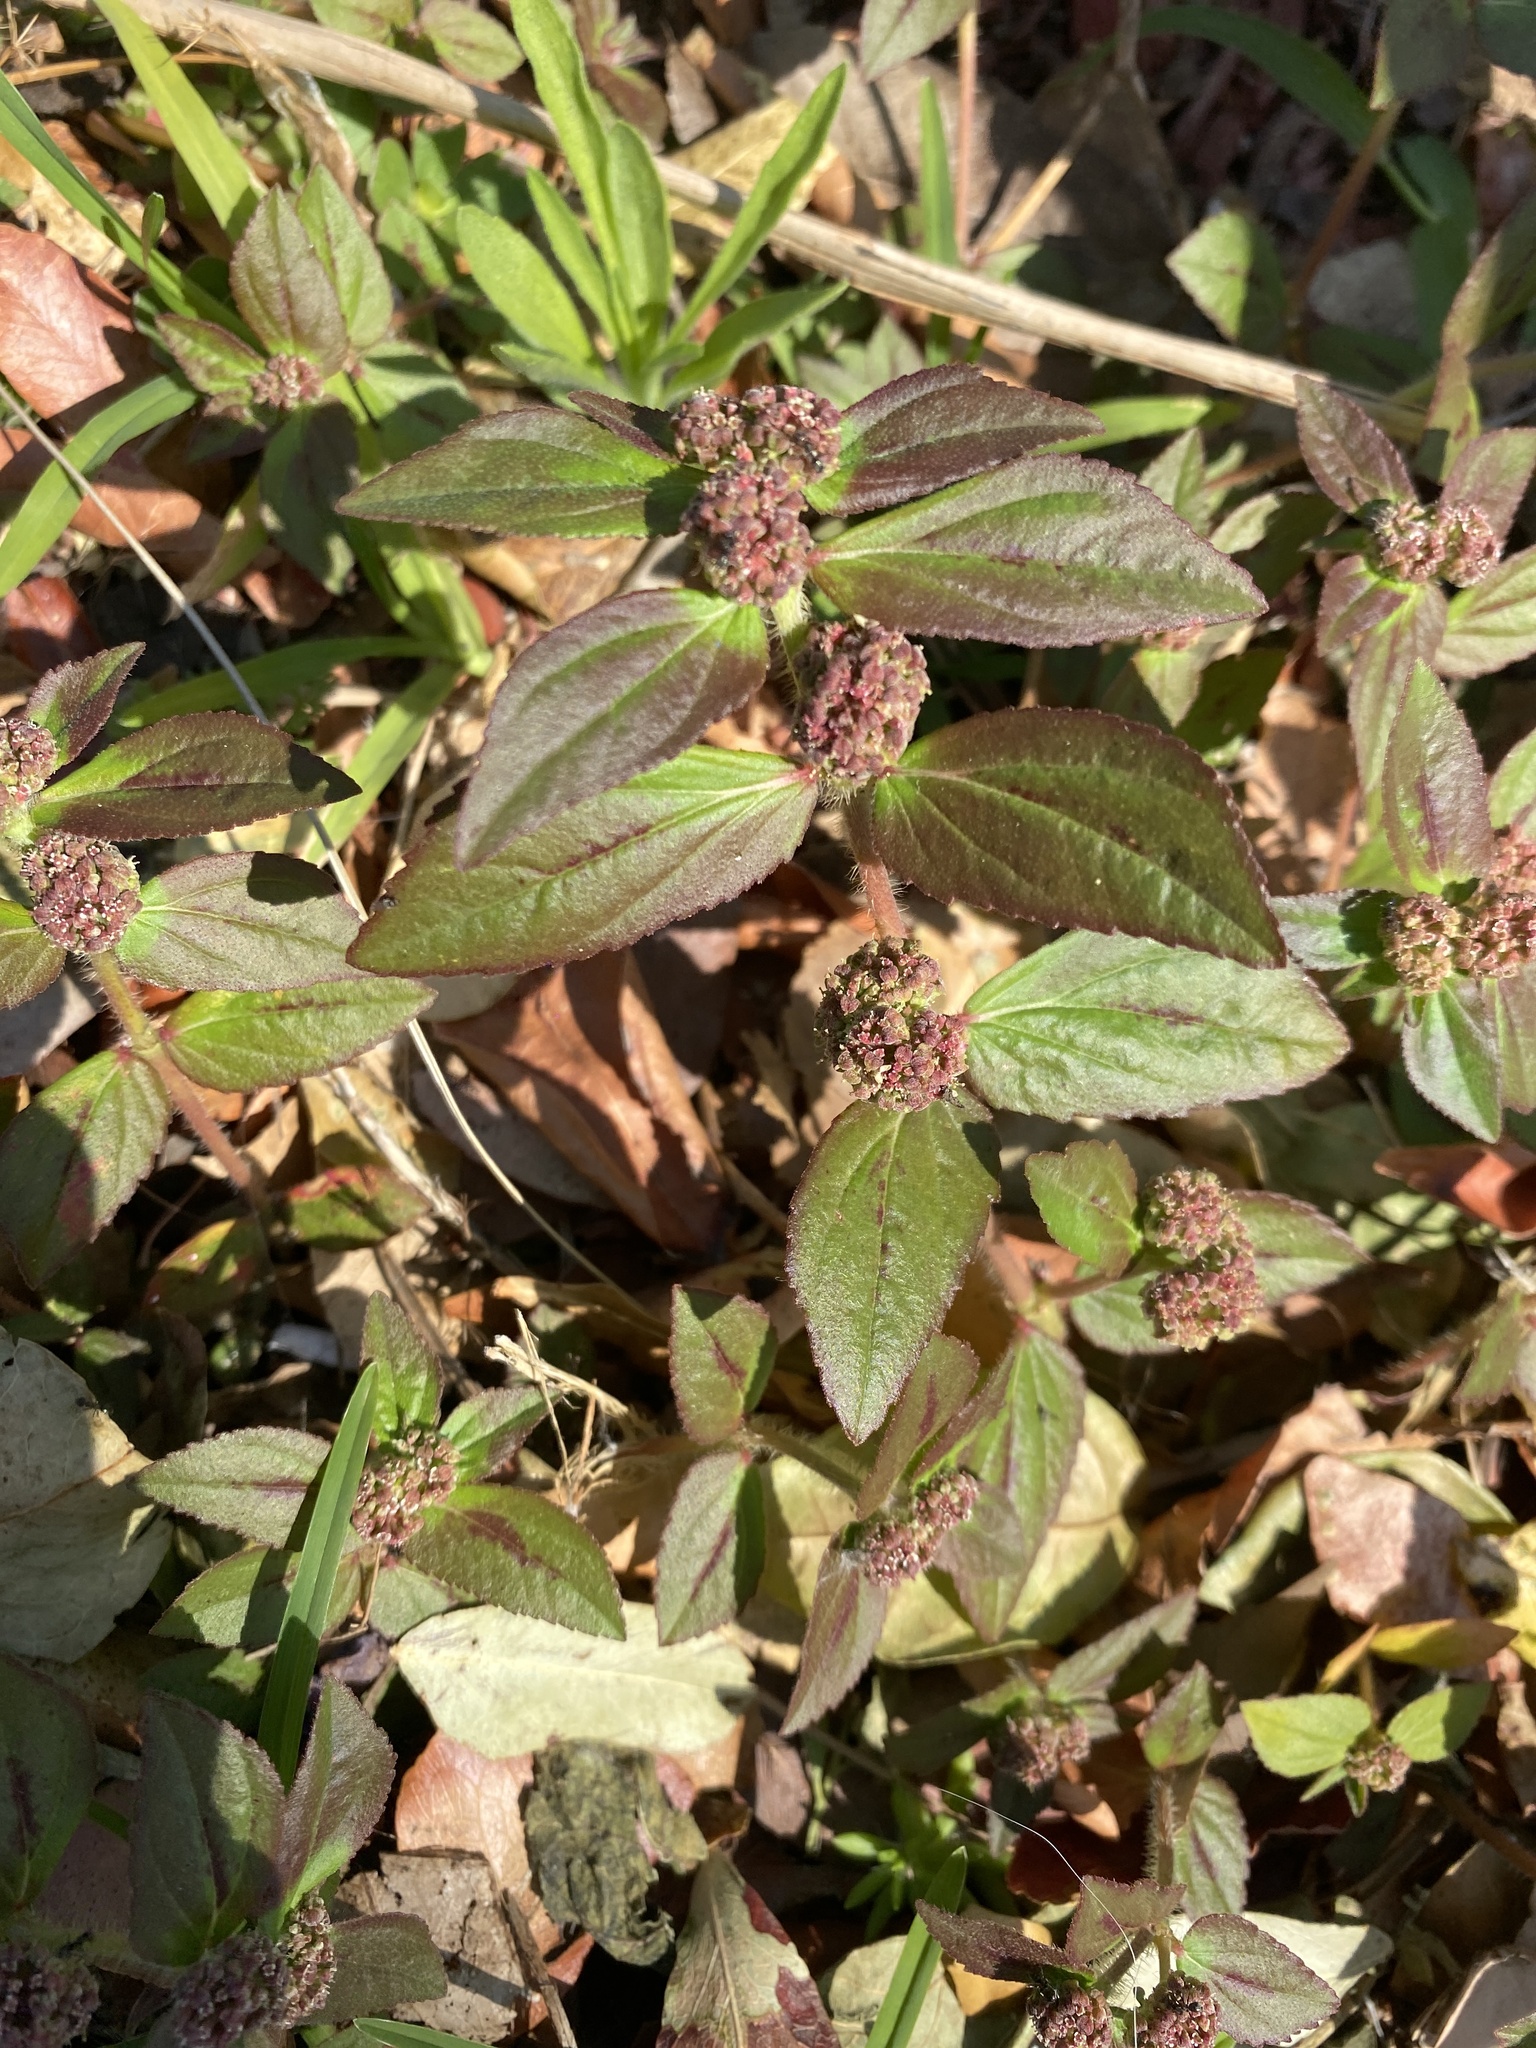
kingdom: Plantae
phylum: Tracheophyta
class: Magnoliopsida
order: Malpighiales
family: Euphorbiaceae
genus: Euphorbia
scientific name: Euphorbia hirta
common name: Pillpod sandmat
